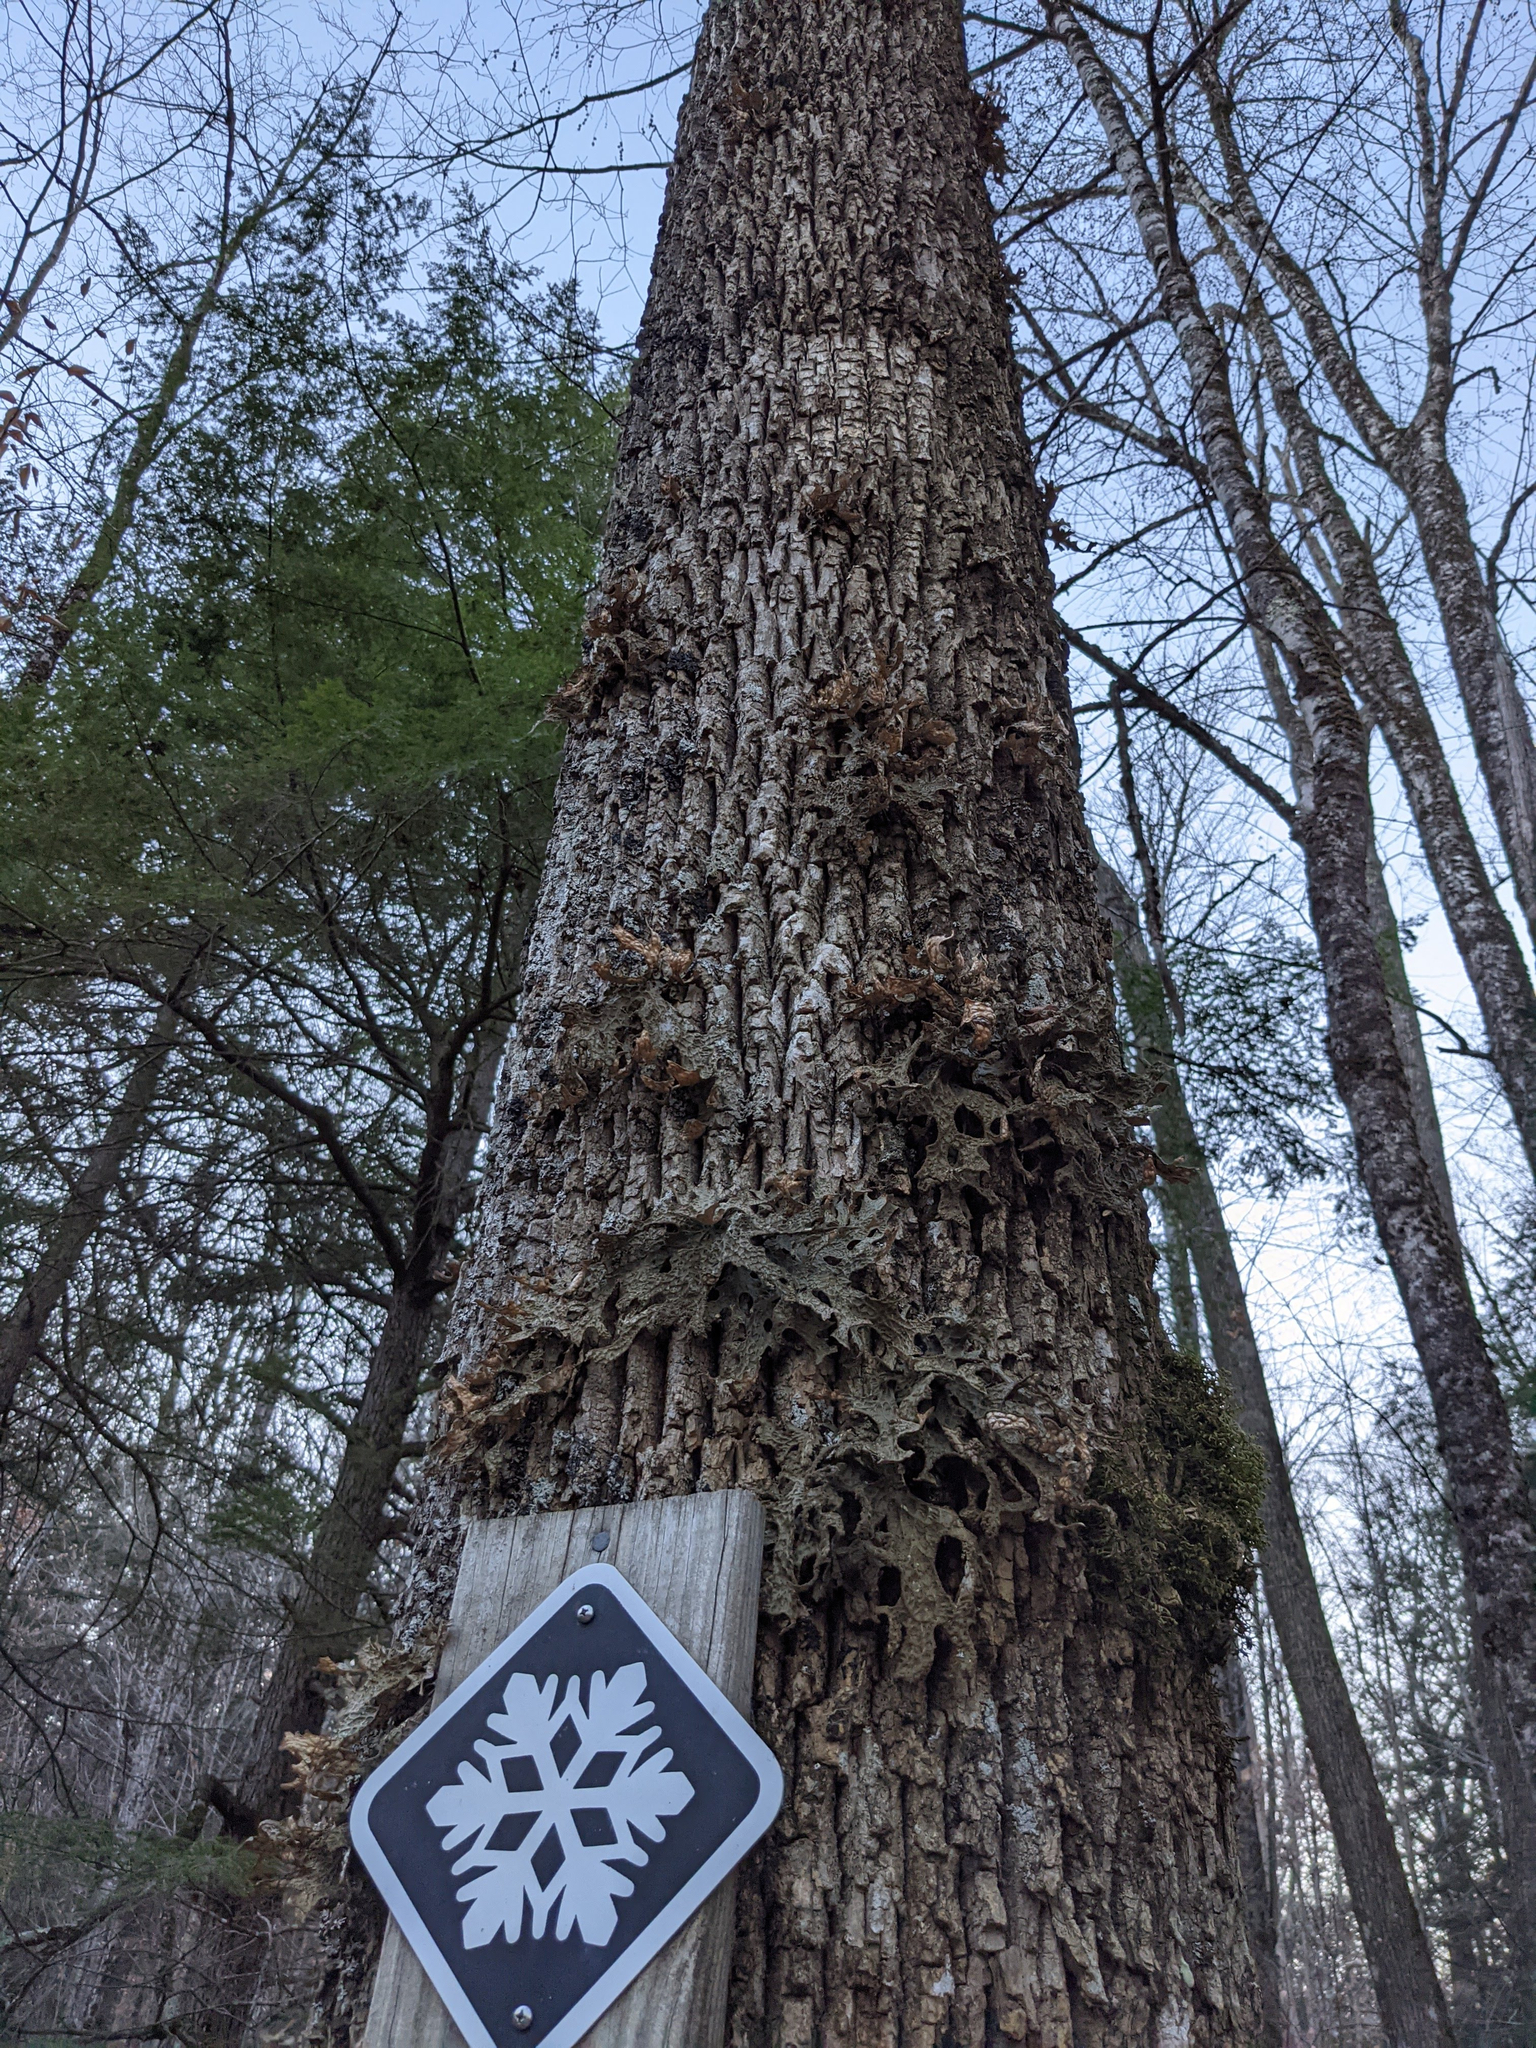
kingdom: Fungi
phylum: Ascomycota
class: Lecanoromycetes
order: Peltigerales
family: Lobariaceae
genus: Lobaria
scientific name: Lobaria pulmonaria
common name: Lungwort
